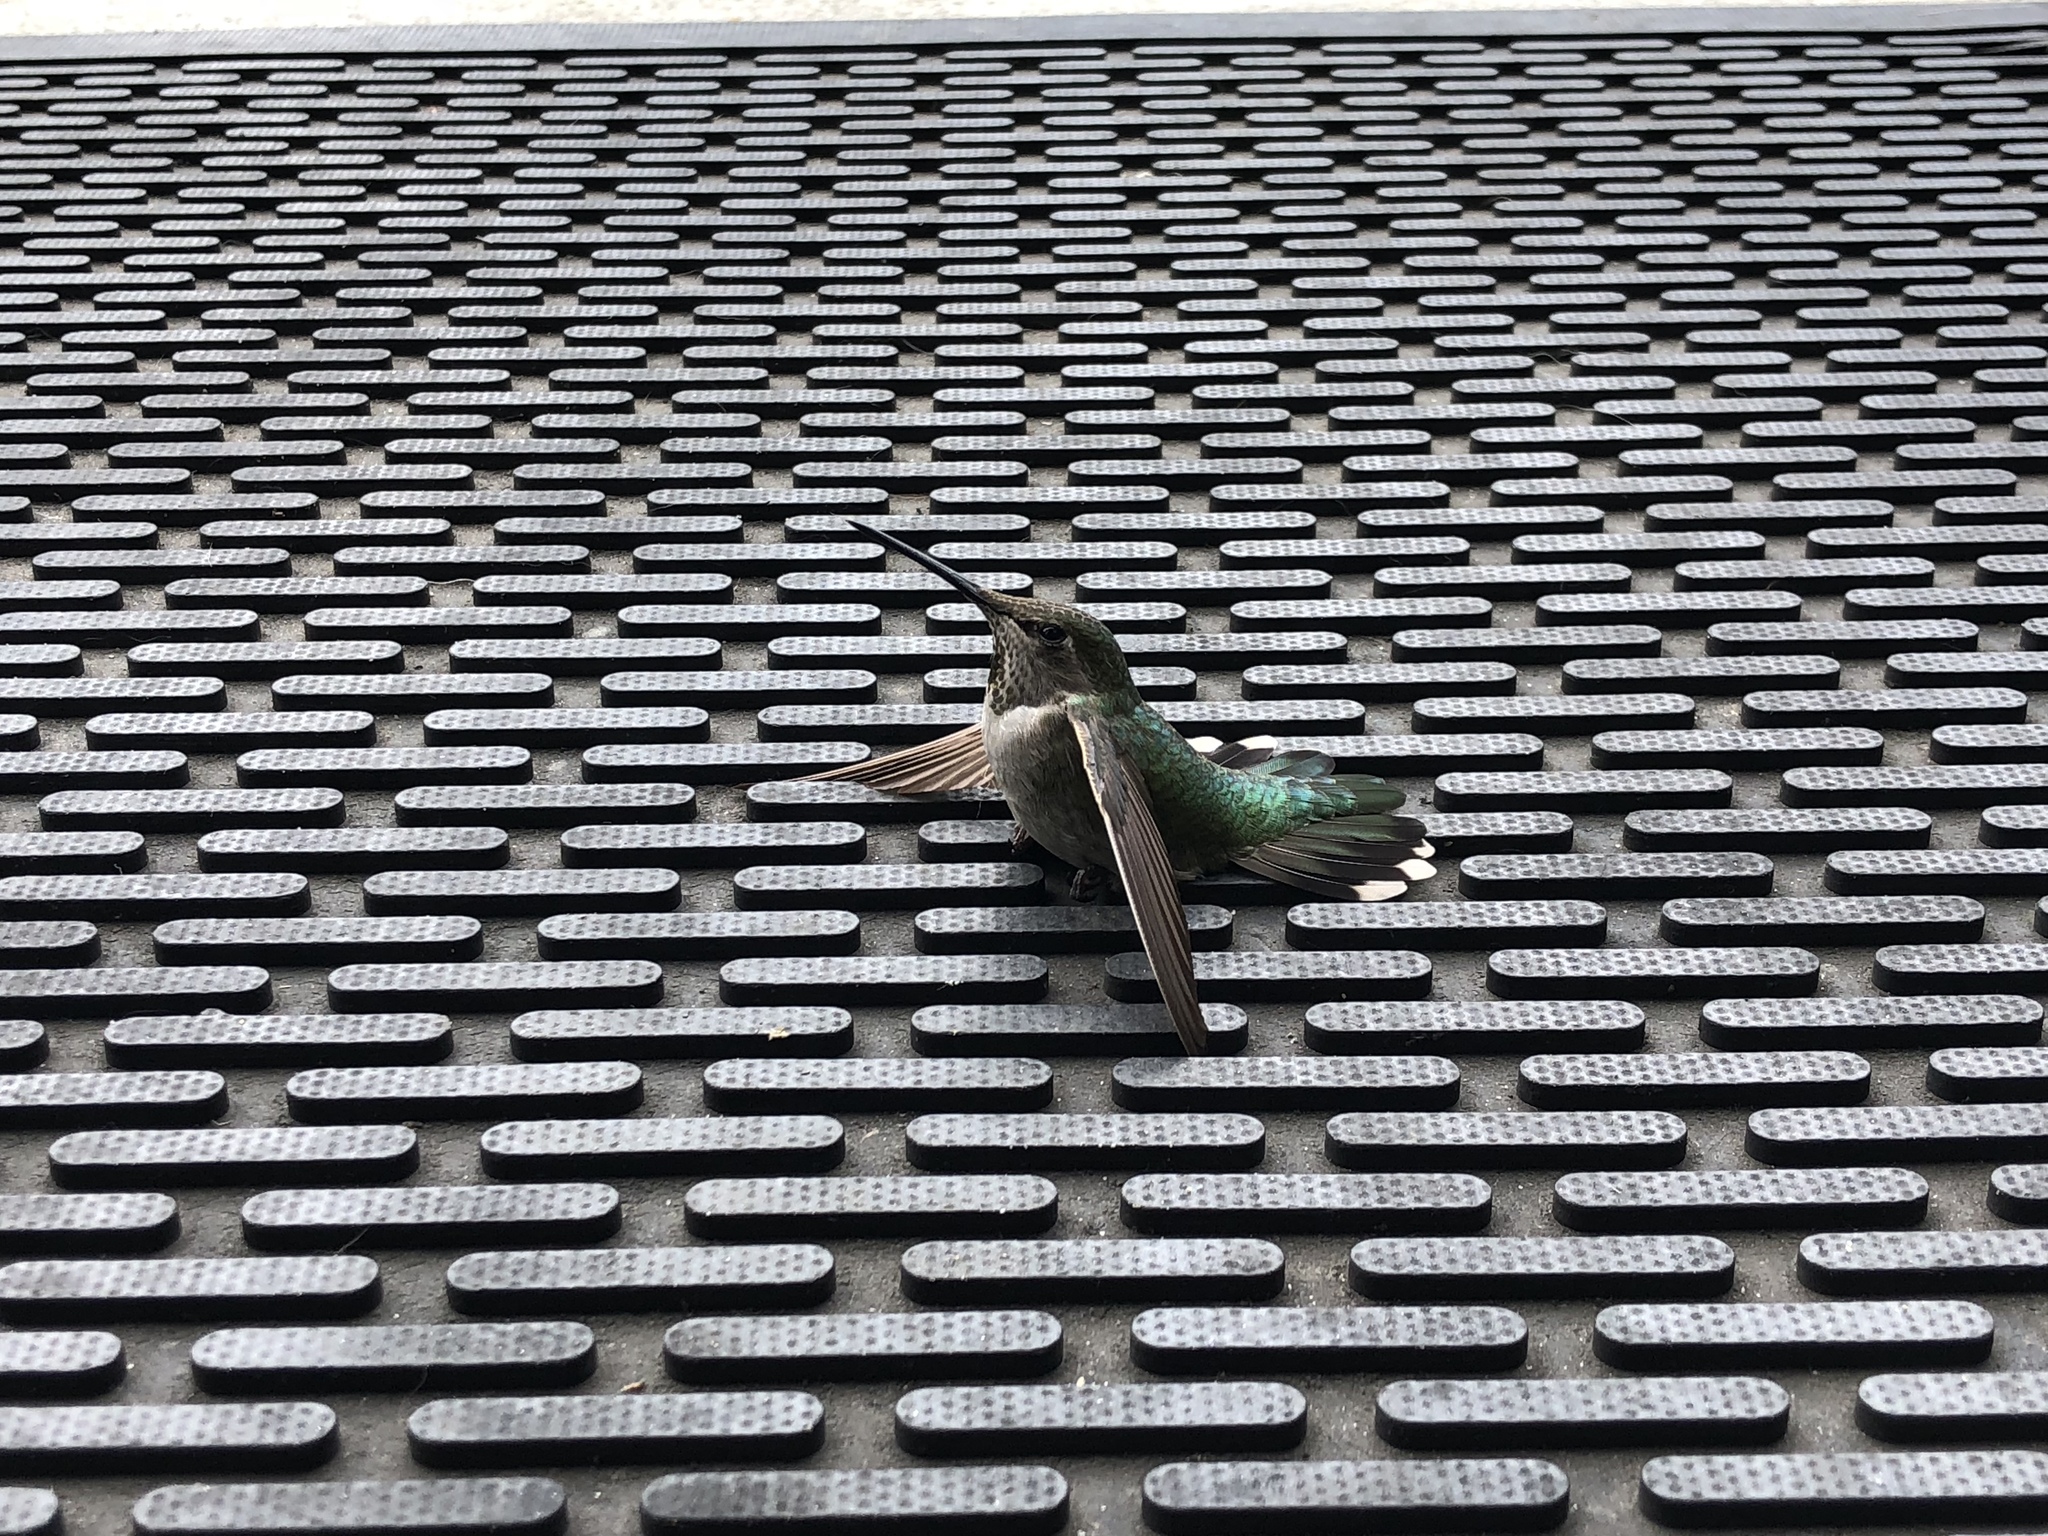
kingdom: Animalia
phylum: Chordata
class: Aves
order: Apodiformes
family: Trochilidae
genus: Calypte
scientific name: Calypte anna
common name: Anna's hummingbird
